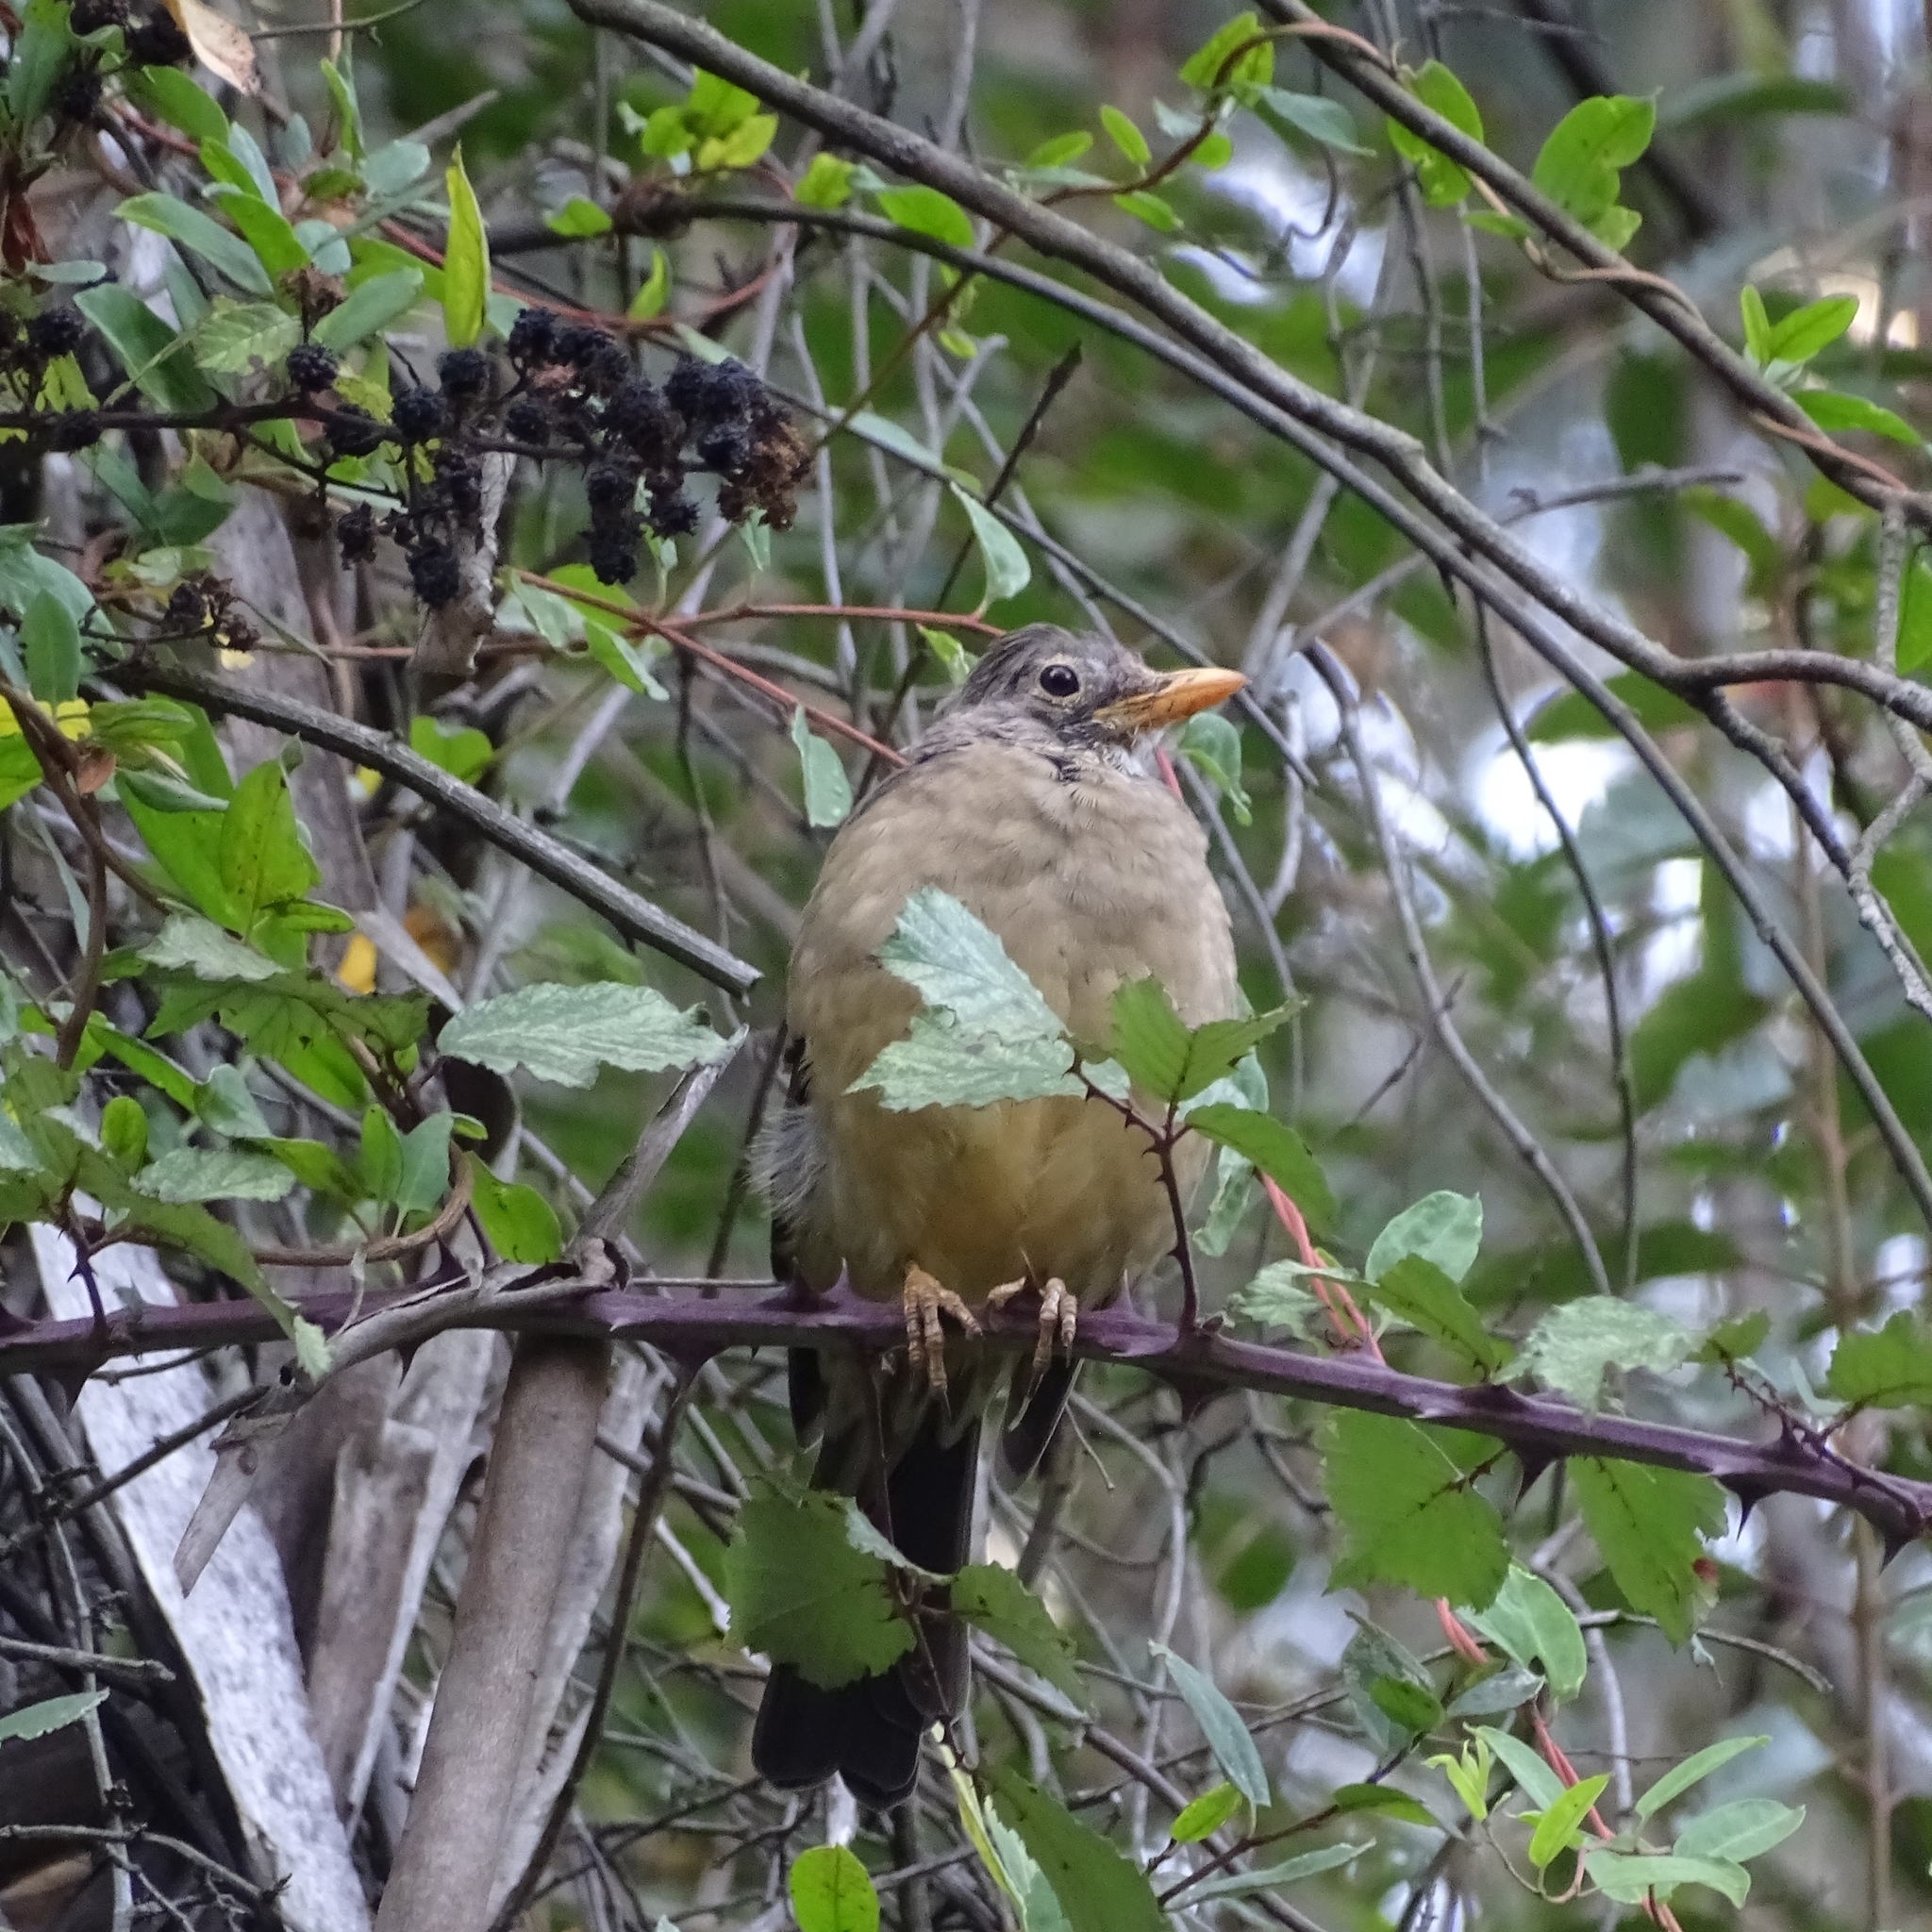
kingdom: Animalia
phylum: Chordata
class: Aves
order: Passeriformes
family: Turdidae
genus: Turdus
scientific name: Turdus falcklandii
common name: Austral thrush
